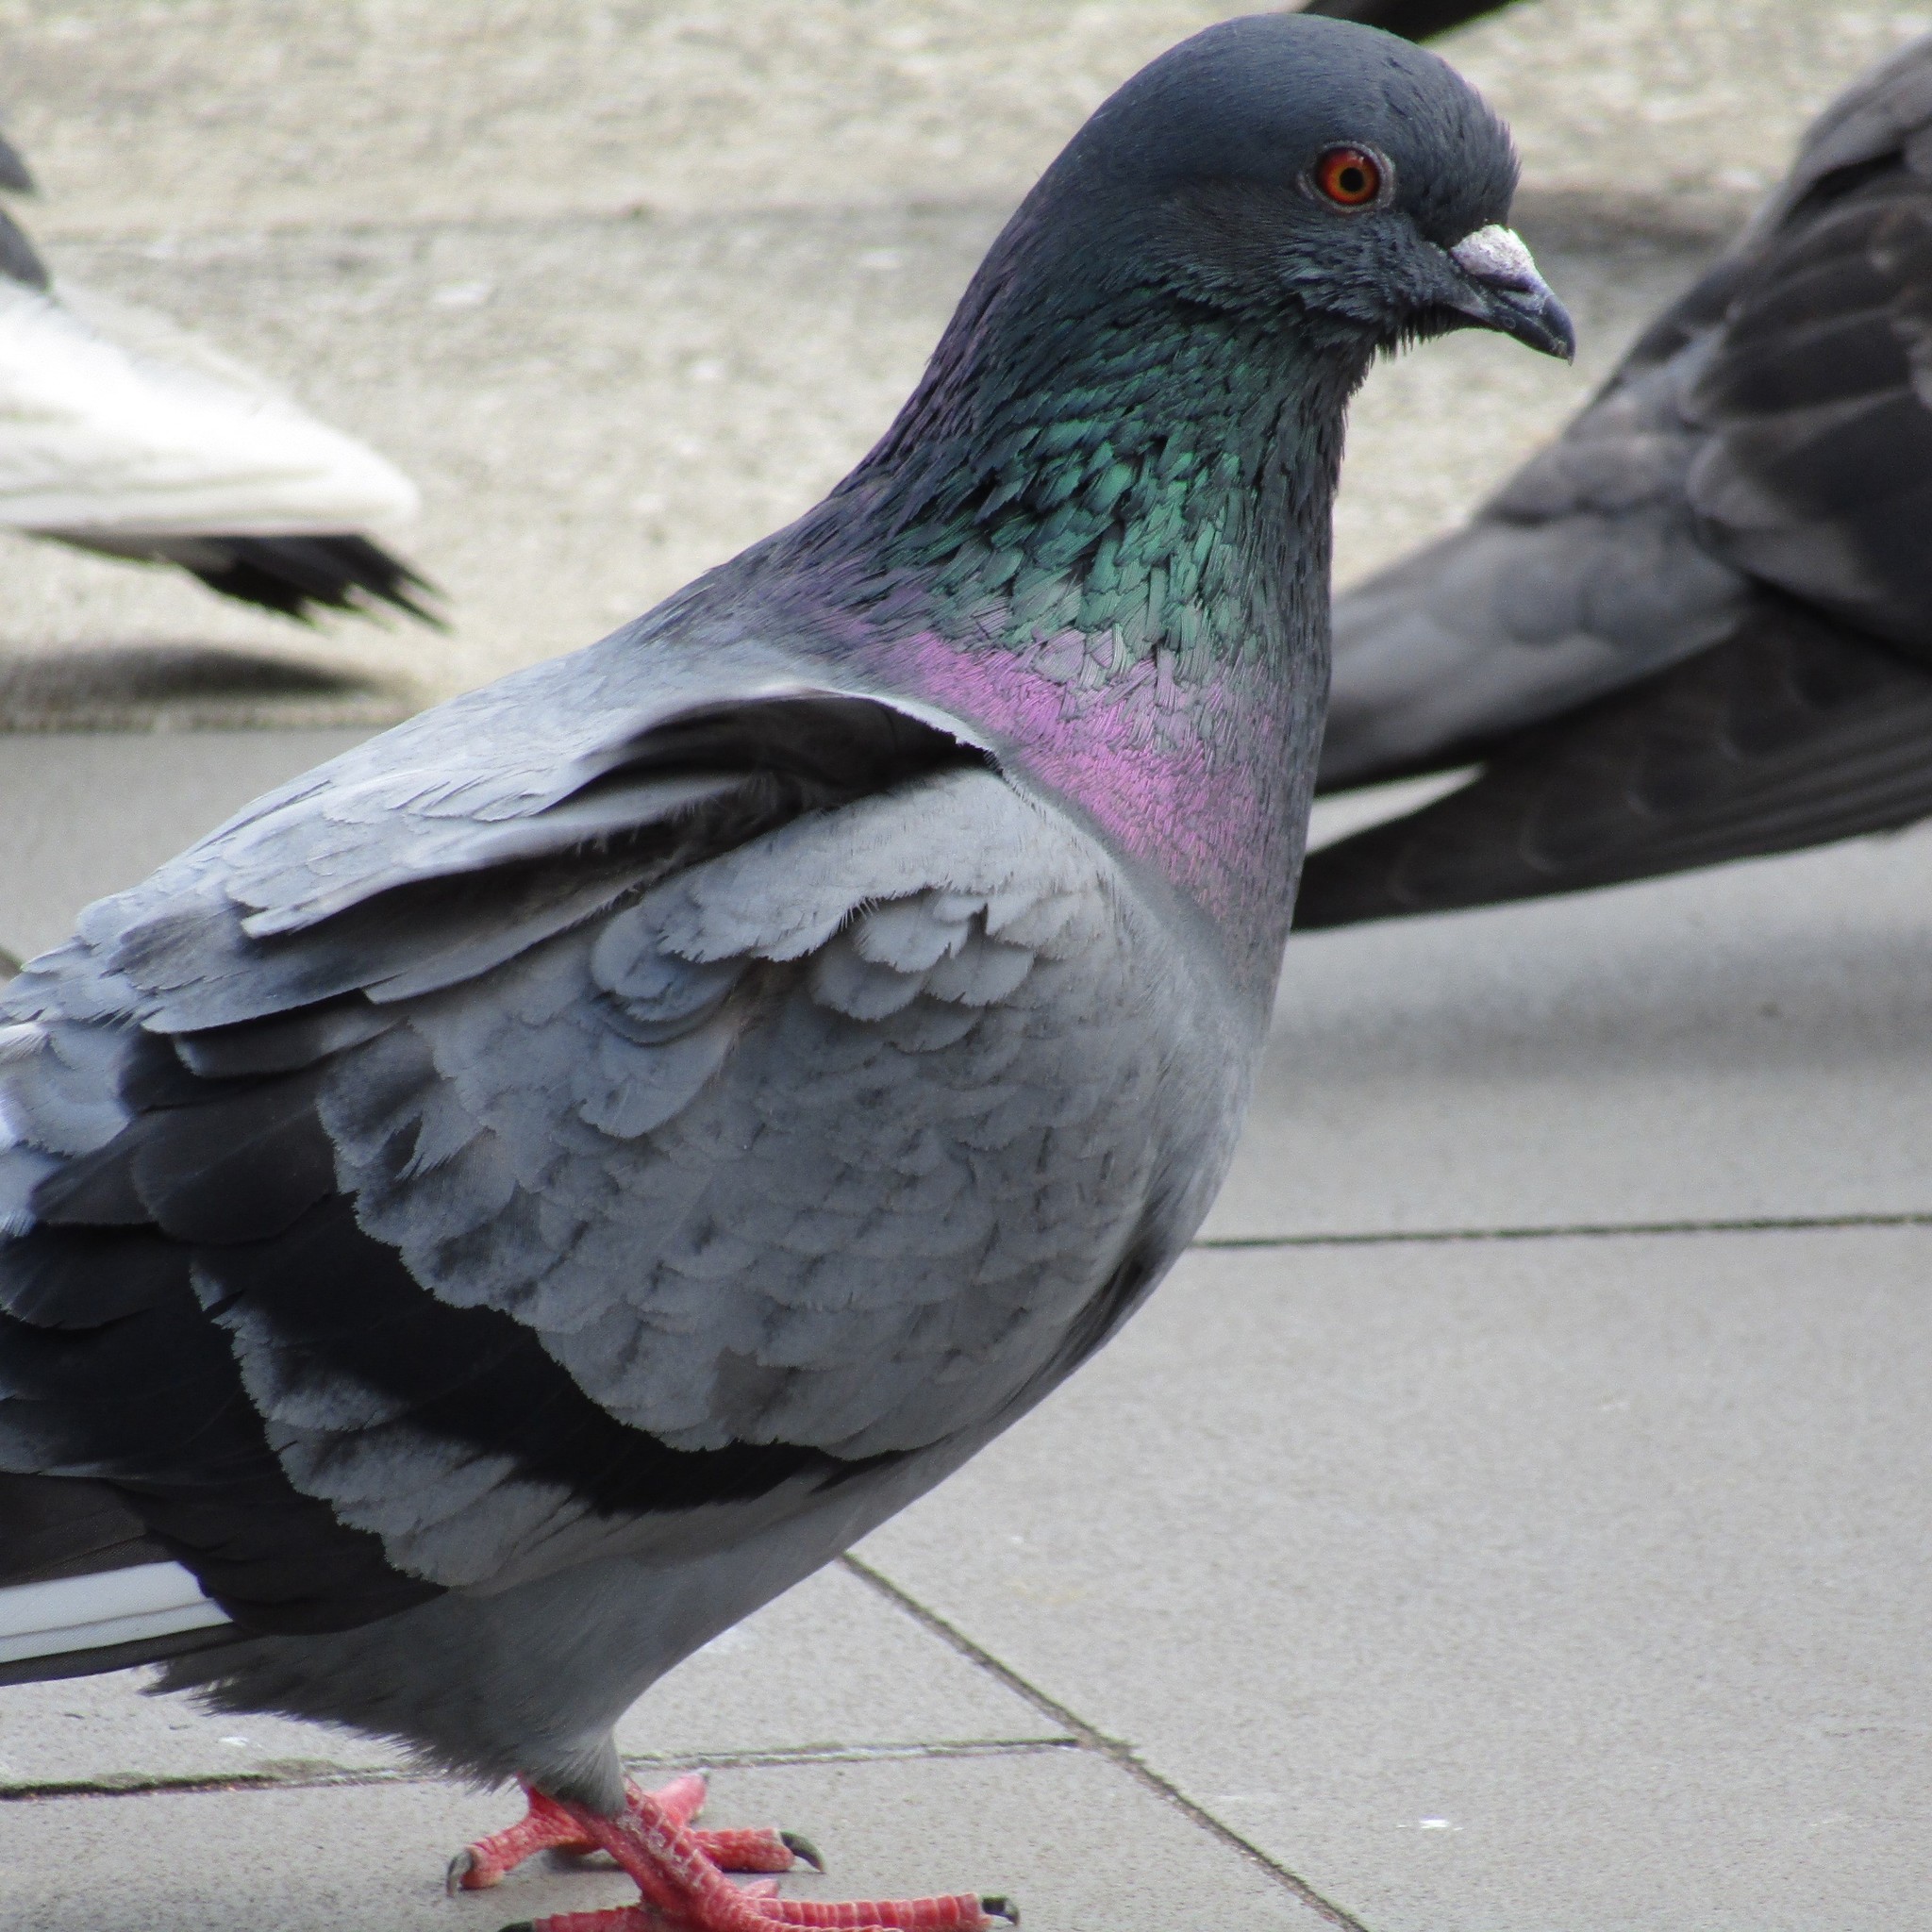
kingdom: Animalia
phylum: Chordata
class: Aves
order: Columbiformes
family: Columbidae
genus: Columba
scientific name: Columba livia
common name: Rock pigeon
